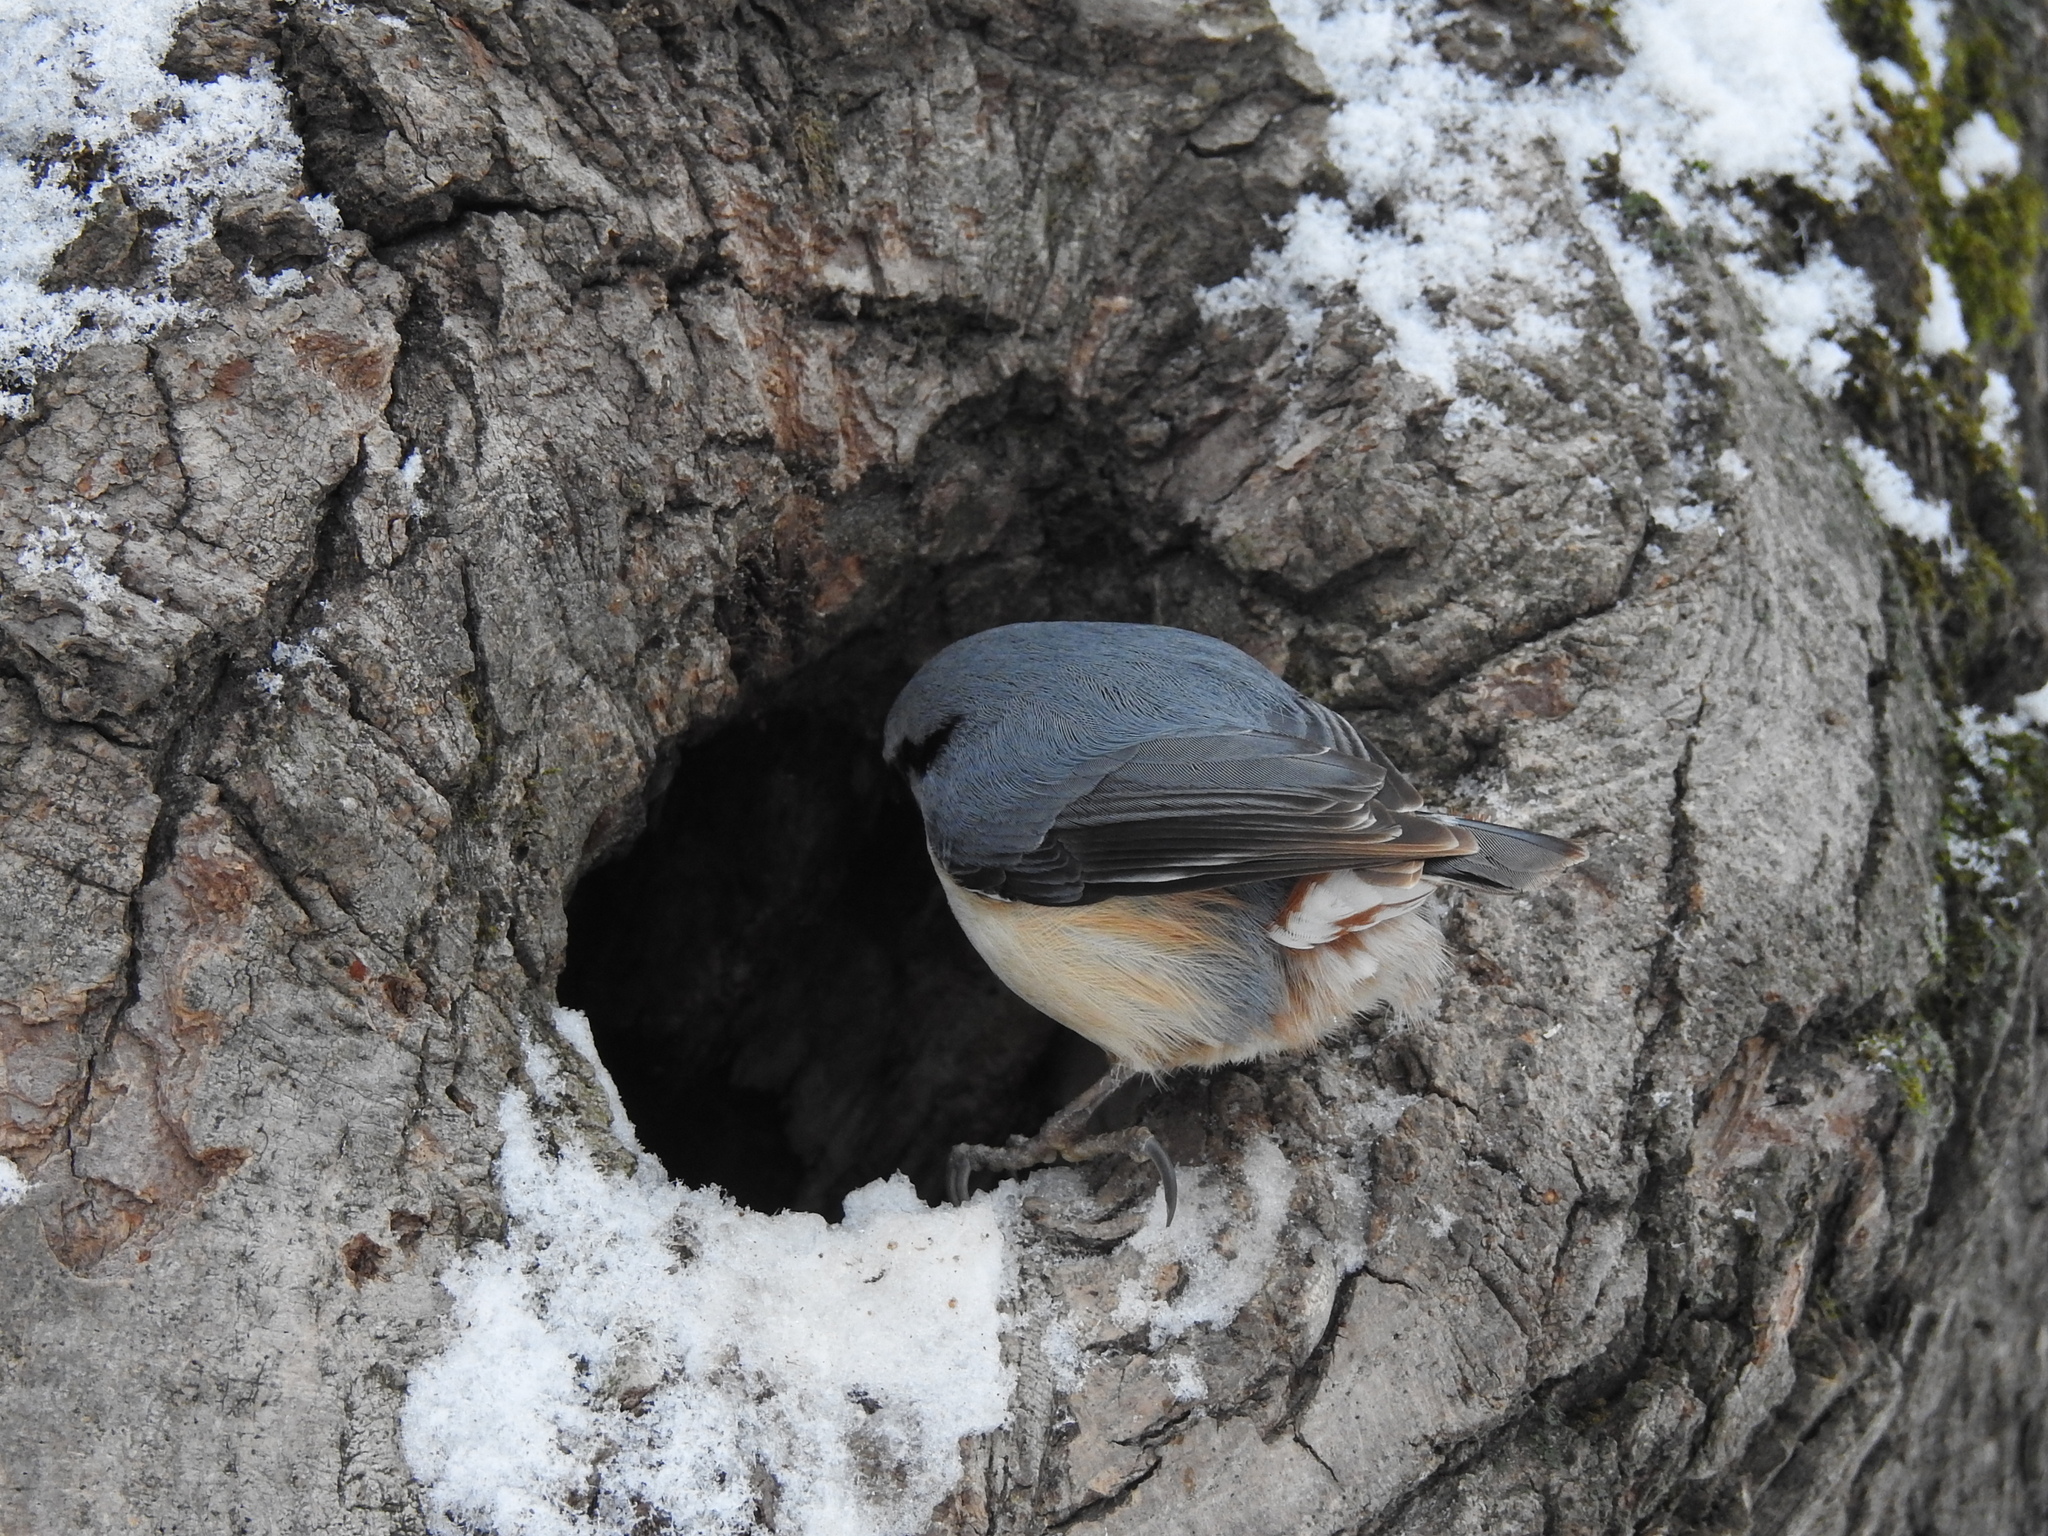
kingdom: Animalia
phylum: Chordata
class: Aves
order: Passeriformes
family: Sittidae
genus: Sitta
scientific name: Sitta europaea
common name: Eurasian nuthatch
